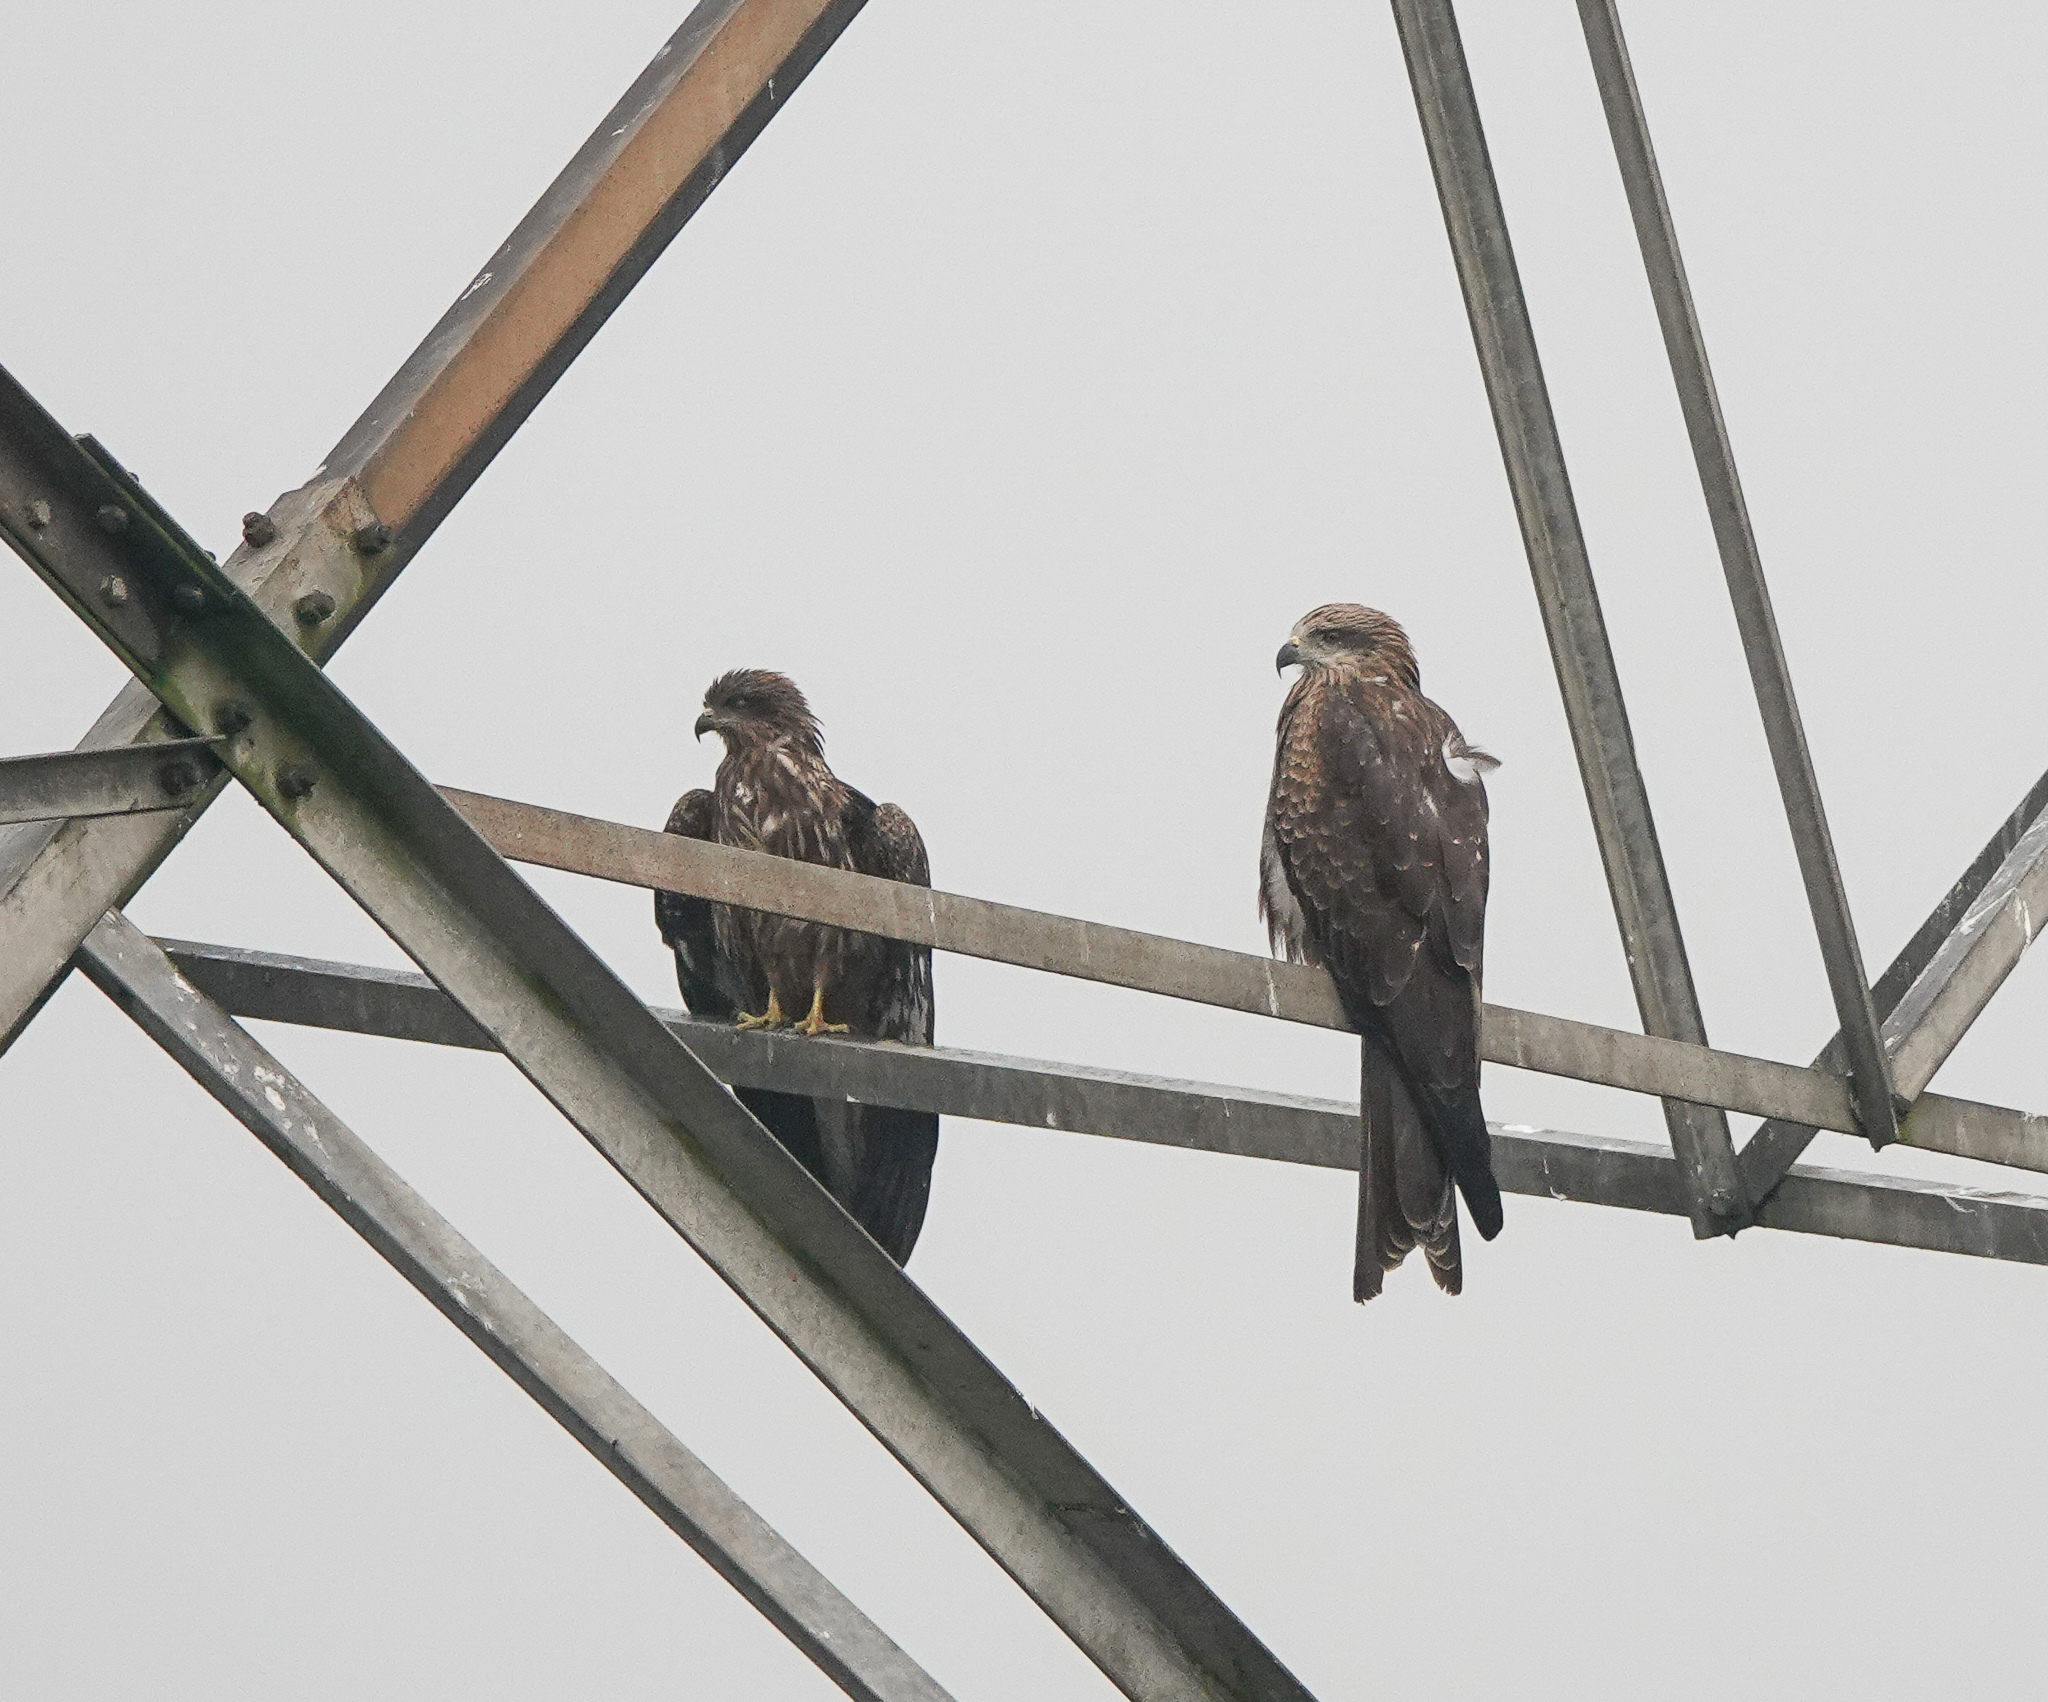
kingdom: Animalia
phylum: Chordata
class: Aves
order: Accipitriformes
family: Accipitridae
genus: Milvus
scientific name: Milvus migrans
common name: Black kite
